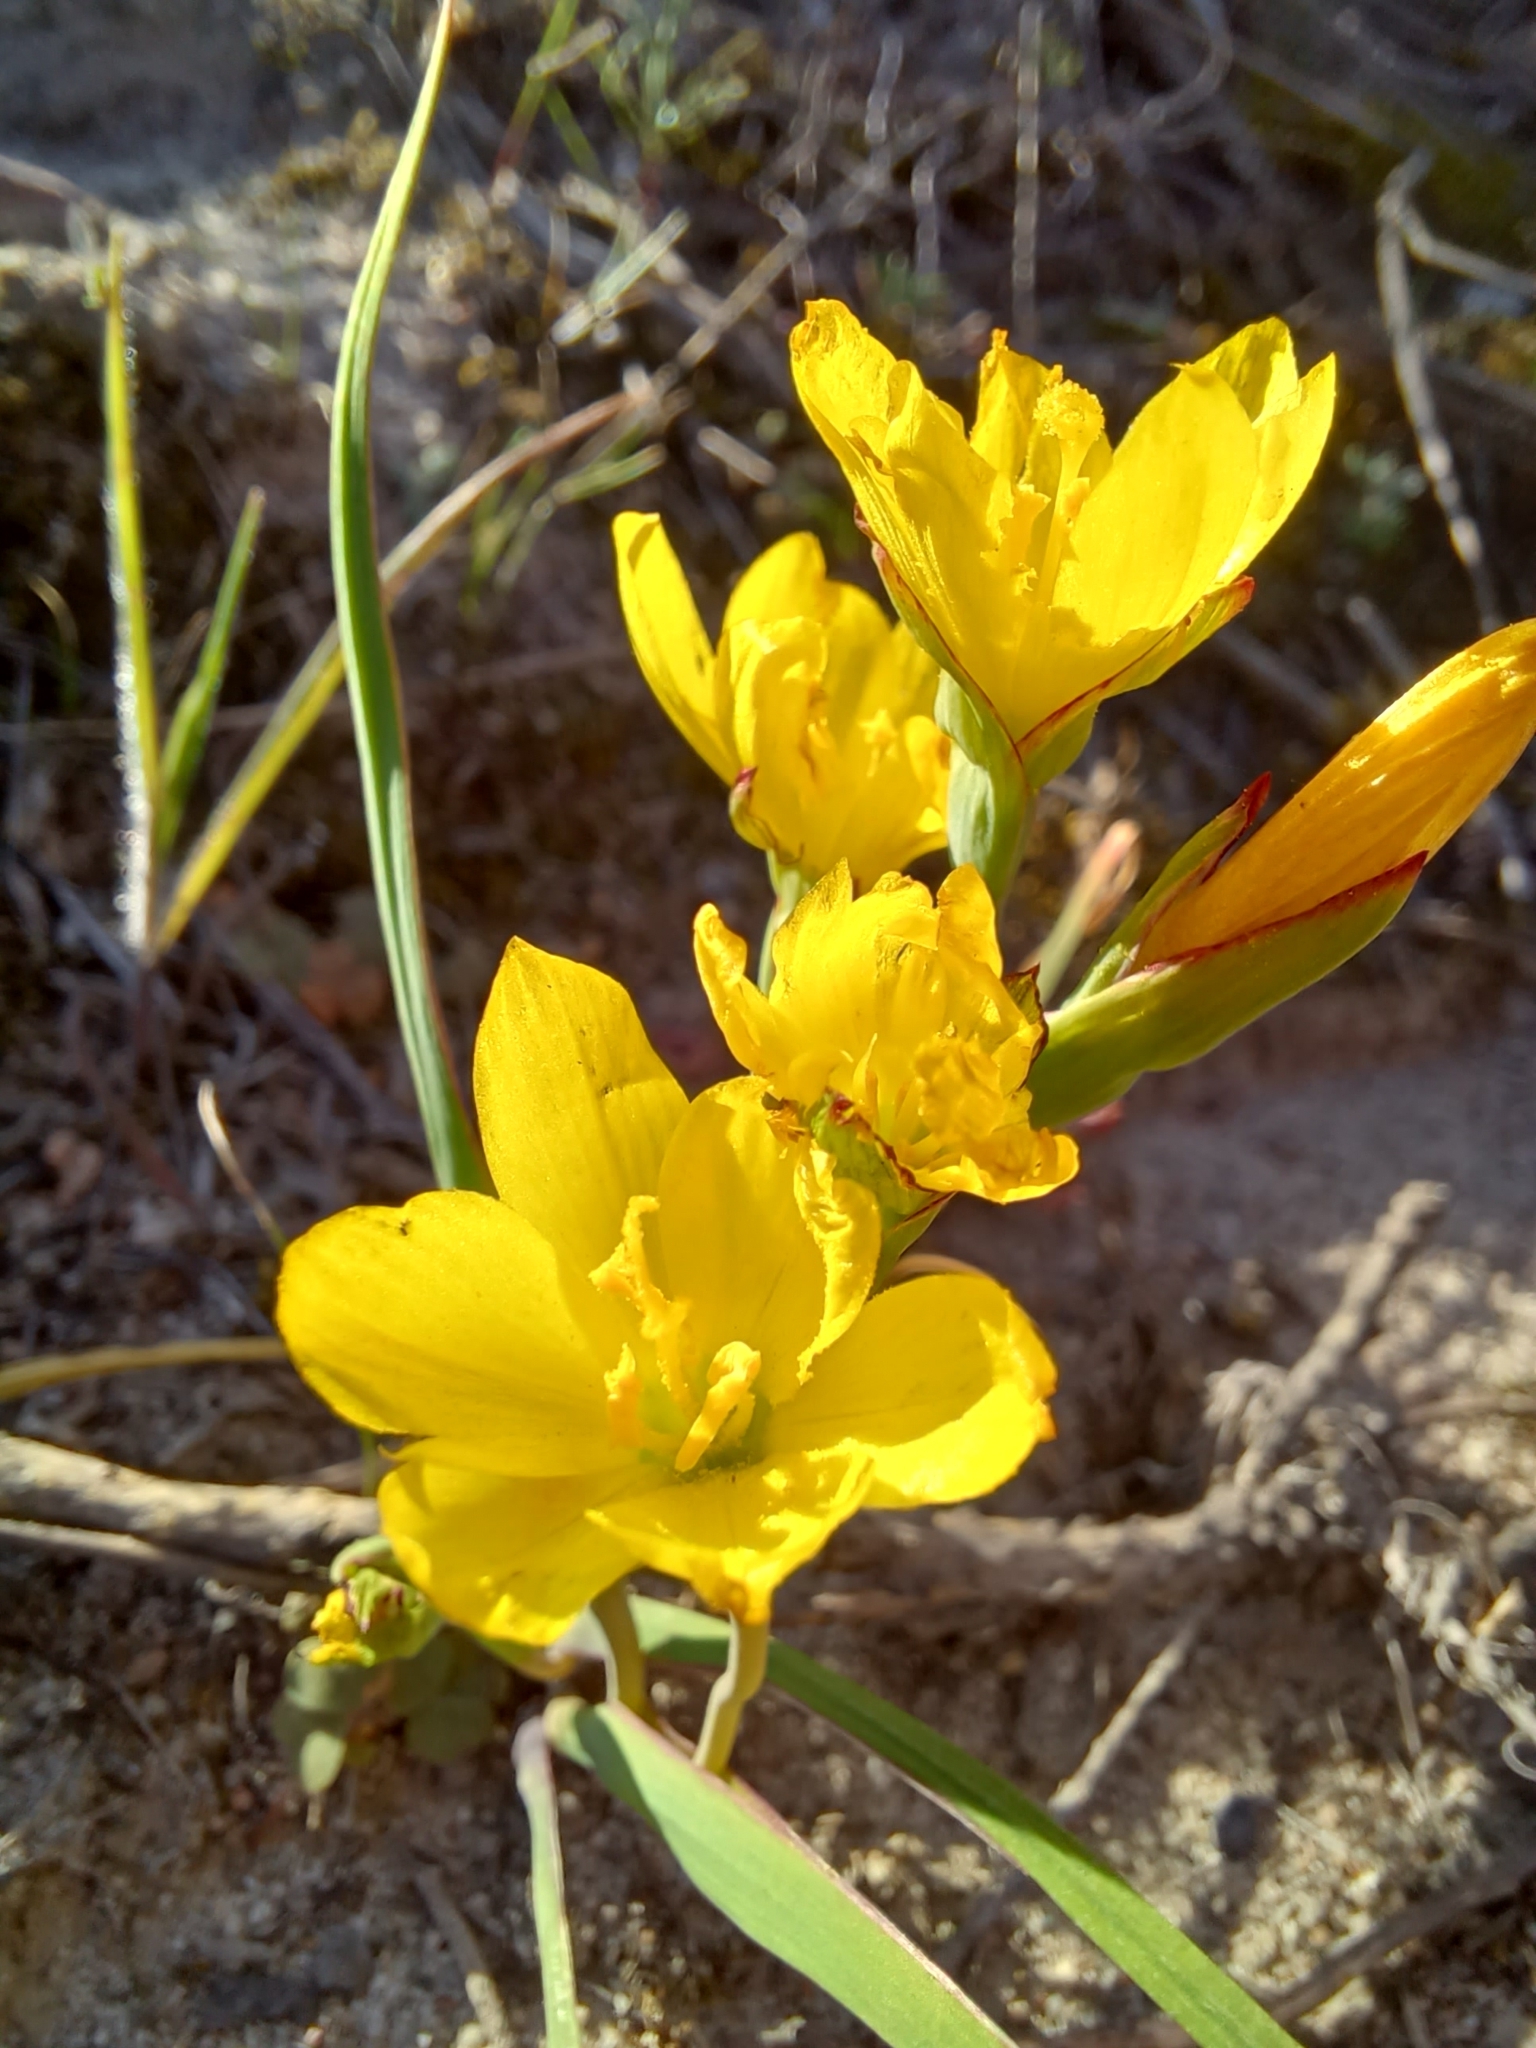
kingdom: Plantae
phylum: Tracheophyta
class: Liliopsida
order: Asparagales
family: Iridaceae
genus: Geissorhiza
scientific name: Geissorhiza ornithogaloides
